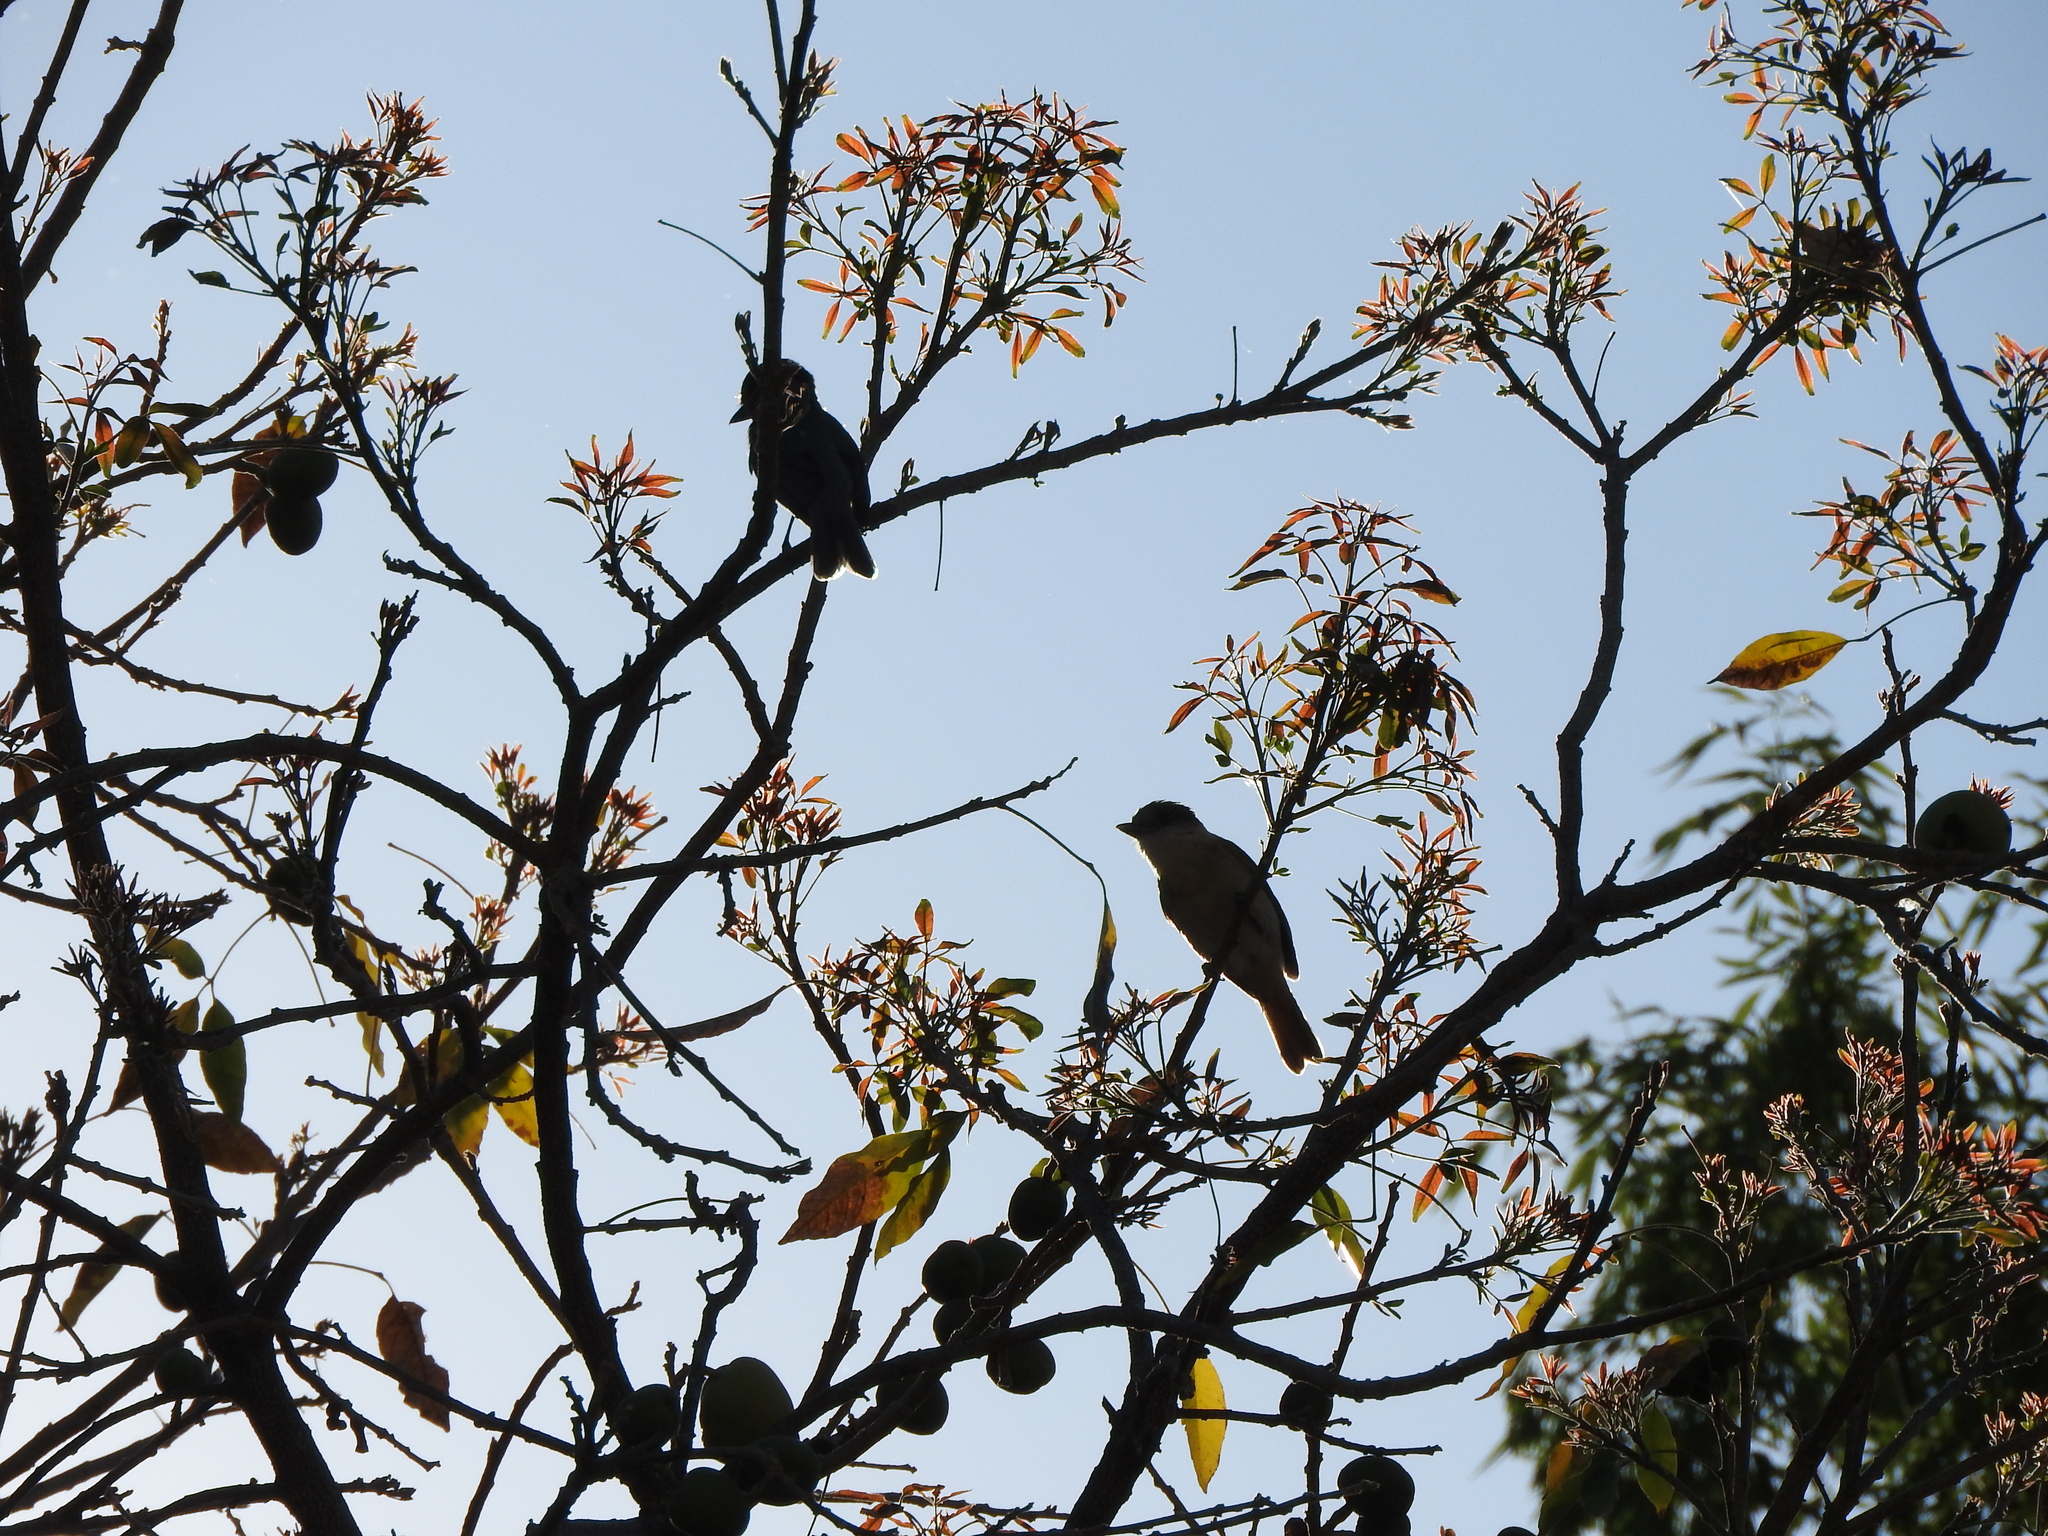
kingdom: Animalia
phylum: Chordata
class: Aves
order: Passeriformes
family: Cotingidae
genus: Pachyramphus
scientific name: Pachyramphus aglaiae
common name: Rose-throated becard
